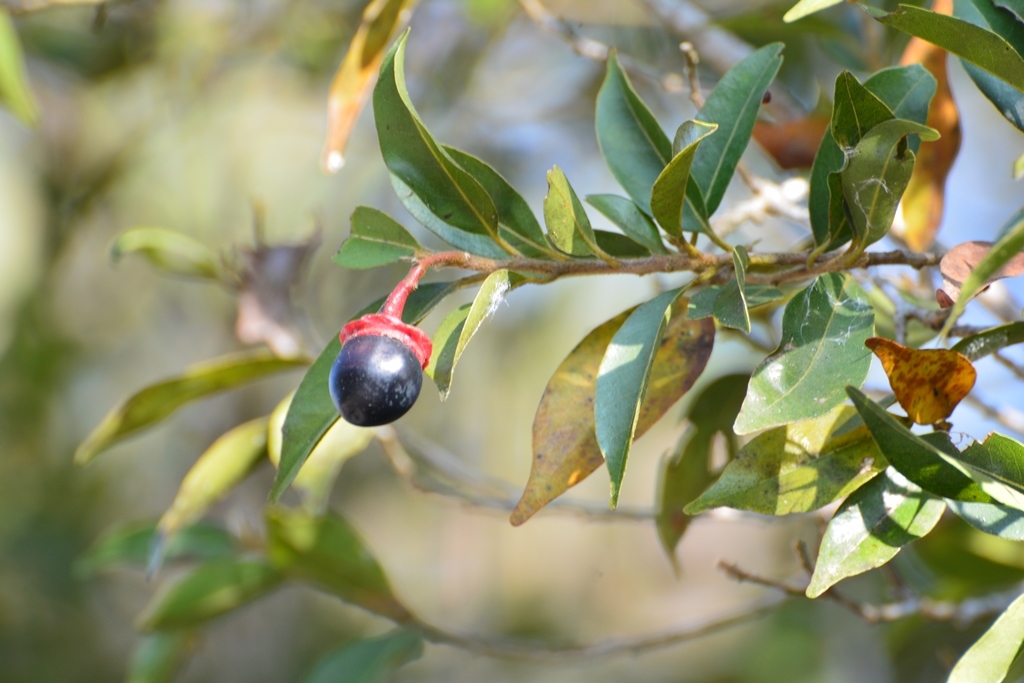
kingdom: Plantae
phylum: Tracheophyta
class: Magnoliopsida
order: Laurales
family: Lauraceae
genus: Licaria
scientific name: Licaria misantlae
